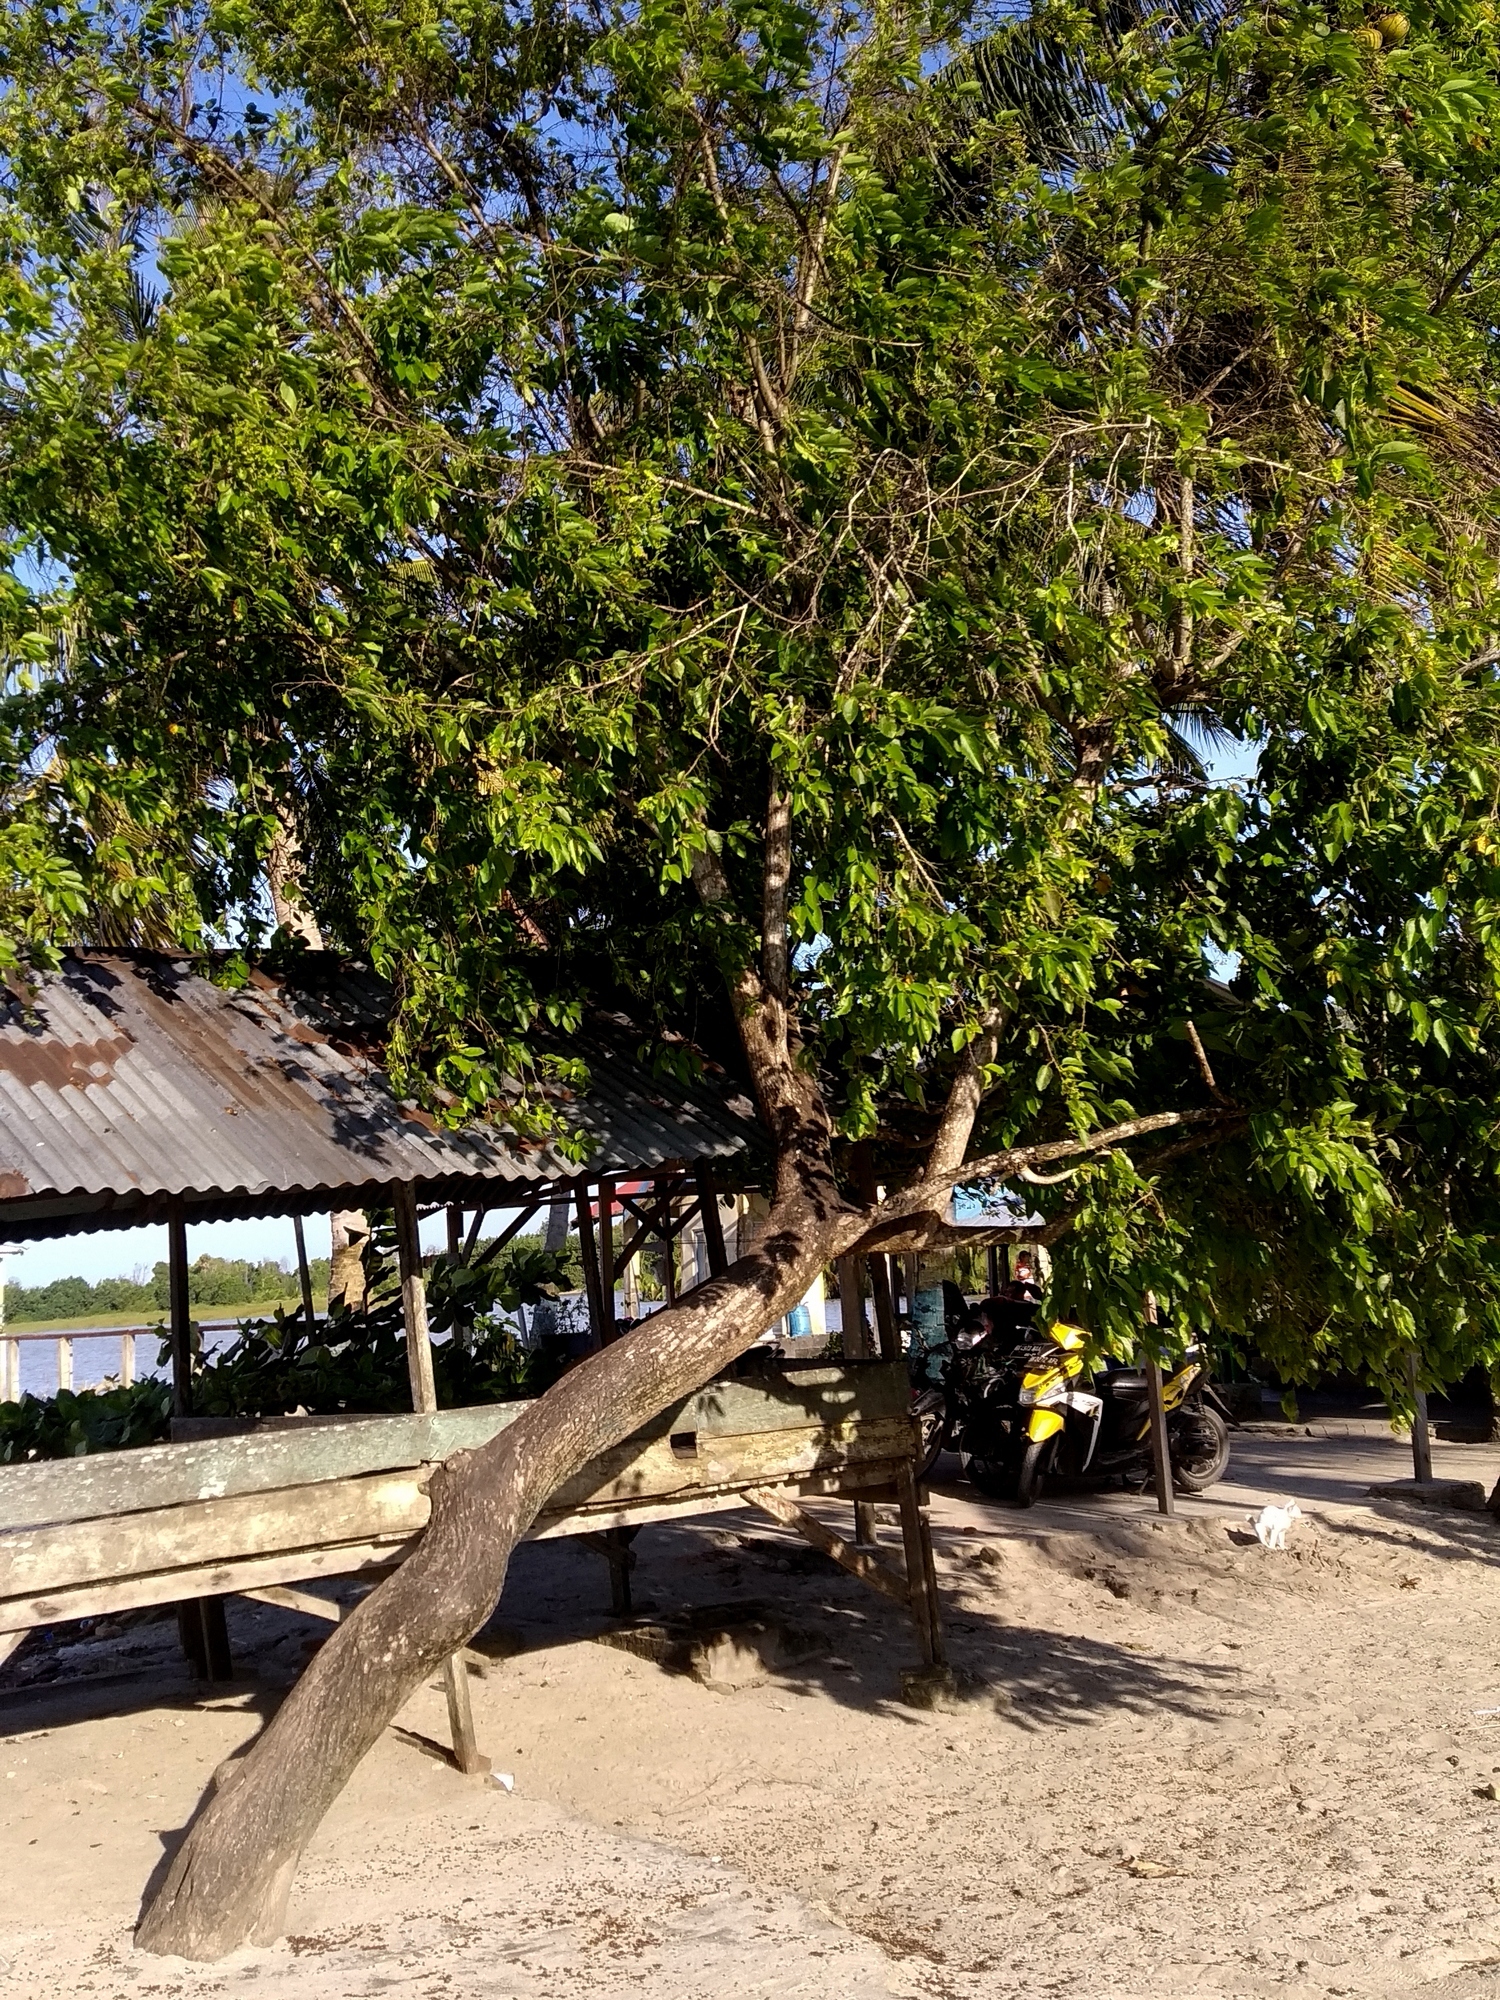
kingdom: Plantae
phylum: Tracheophyta
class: Magnoliopsida
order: Boraginales
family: Cordiaceae
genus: Cordia
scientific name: Cordia dichotoma
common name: Fragrant manjack
